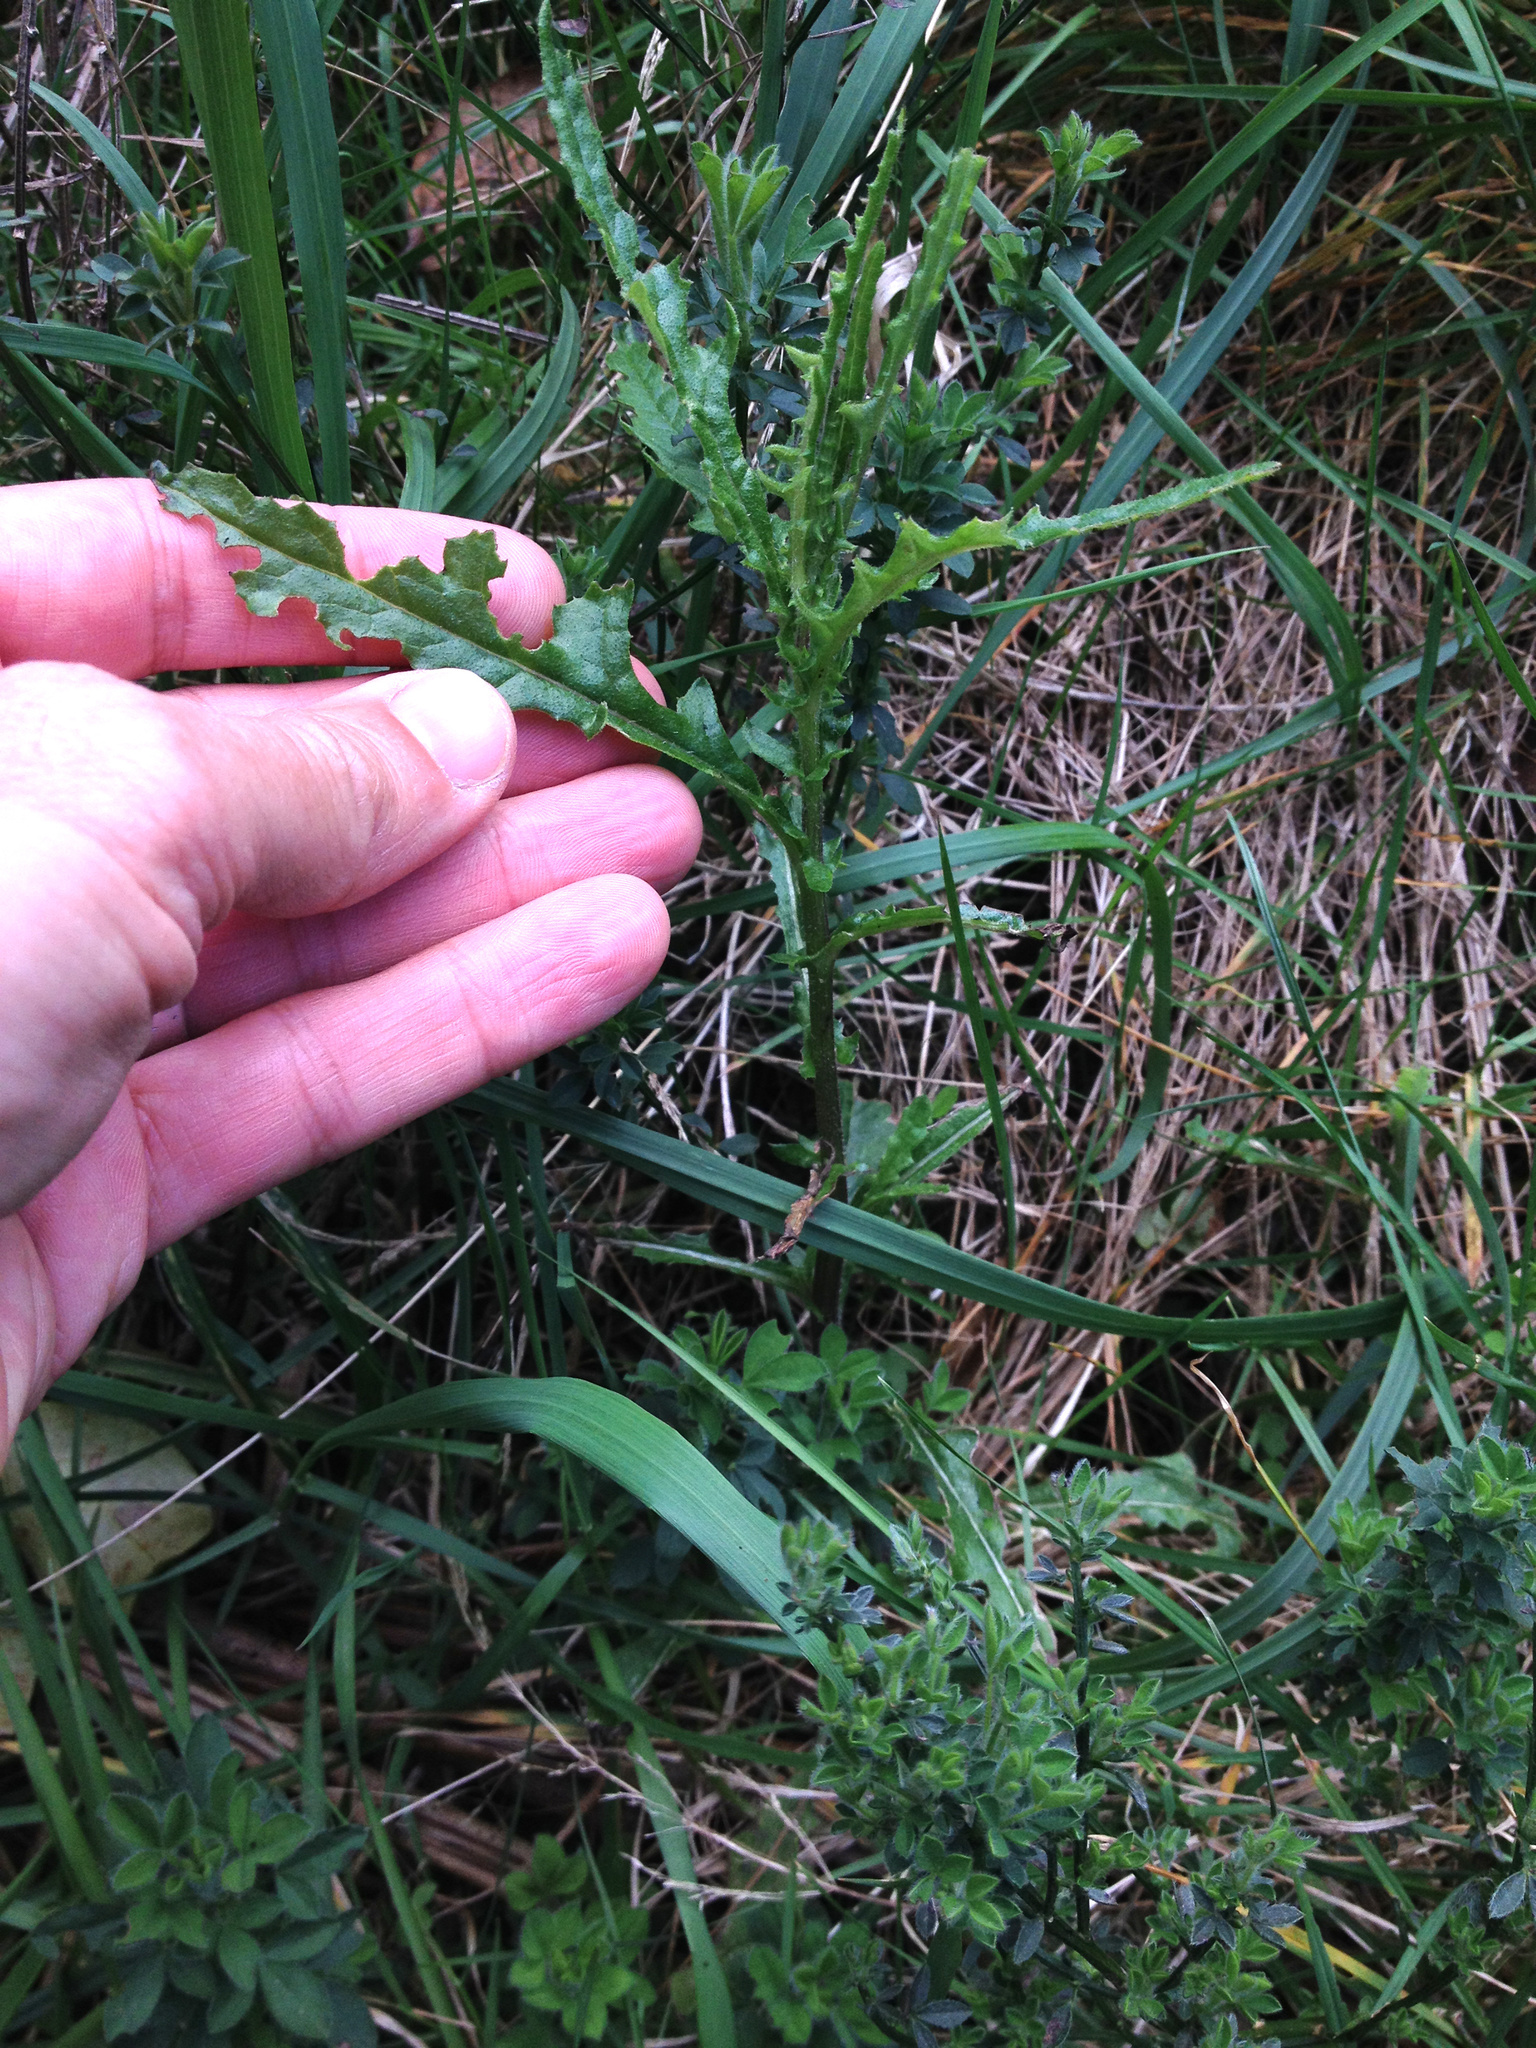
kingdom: Plantae
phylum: Tracheophyta
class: Magnoliopsida
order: Asterales
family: Asteraceae
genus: Senecio
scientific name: Senecio hispidulus
